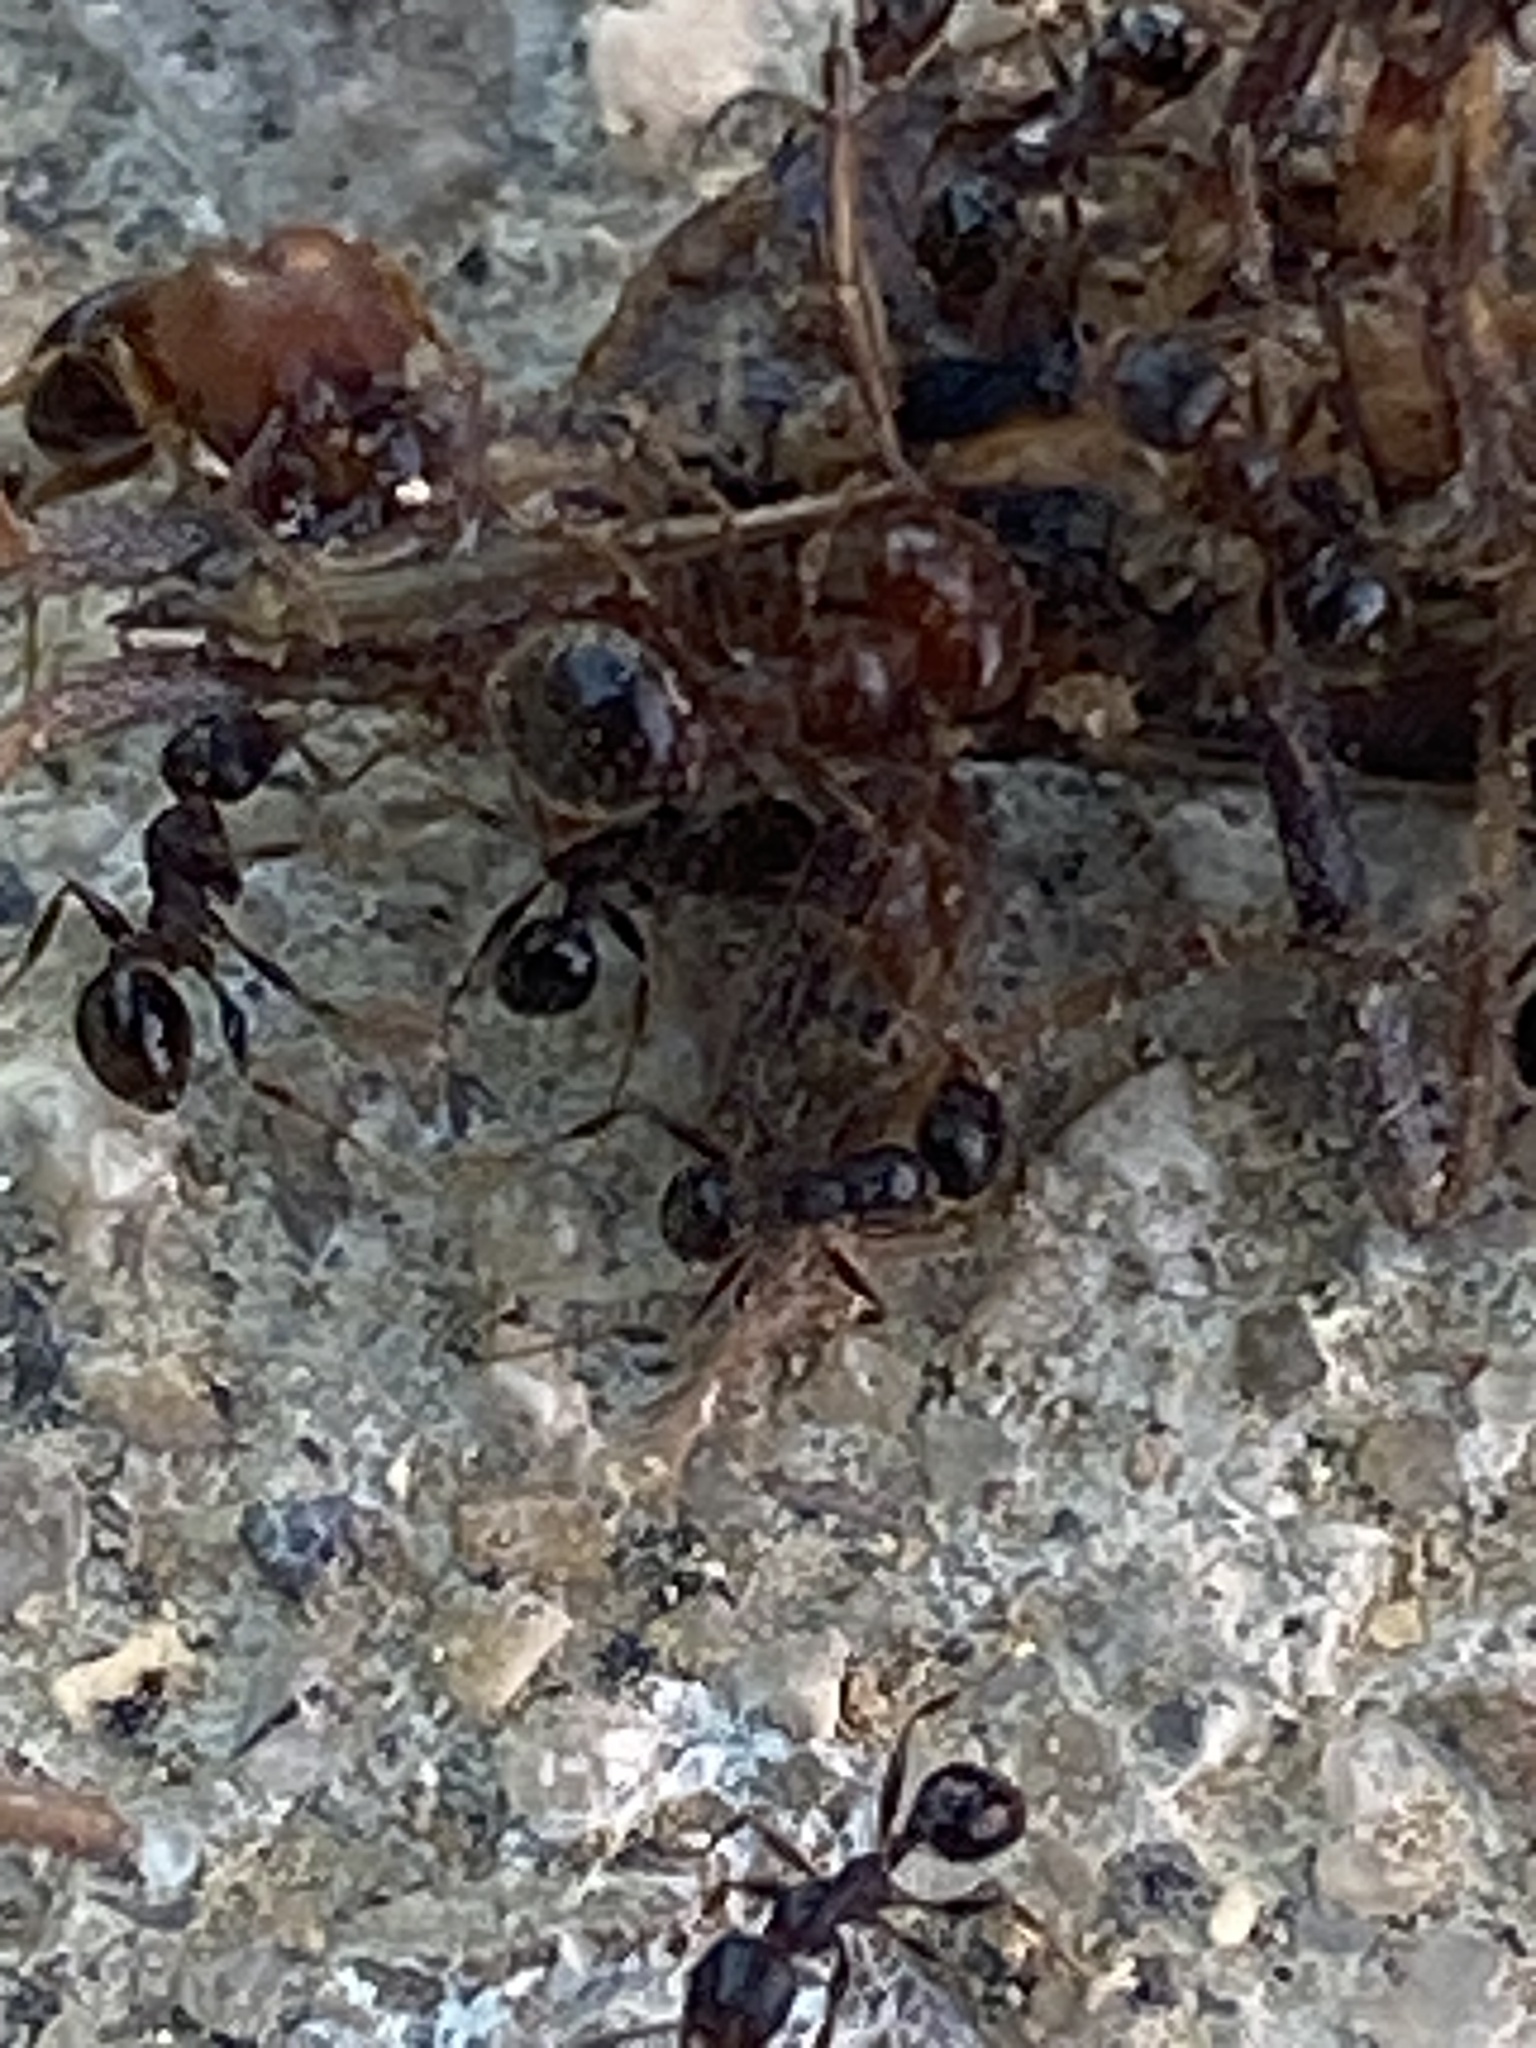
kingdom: Animalia
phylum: Arthropoda
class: Insecta
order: Hymenoptera
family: Formicidae
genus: Pheidole
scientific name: Pheidole metallescens
